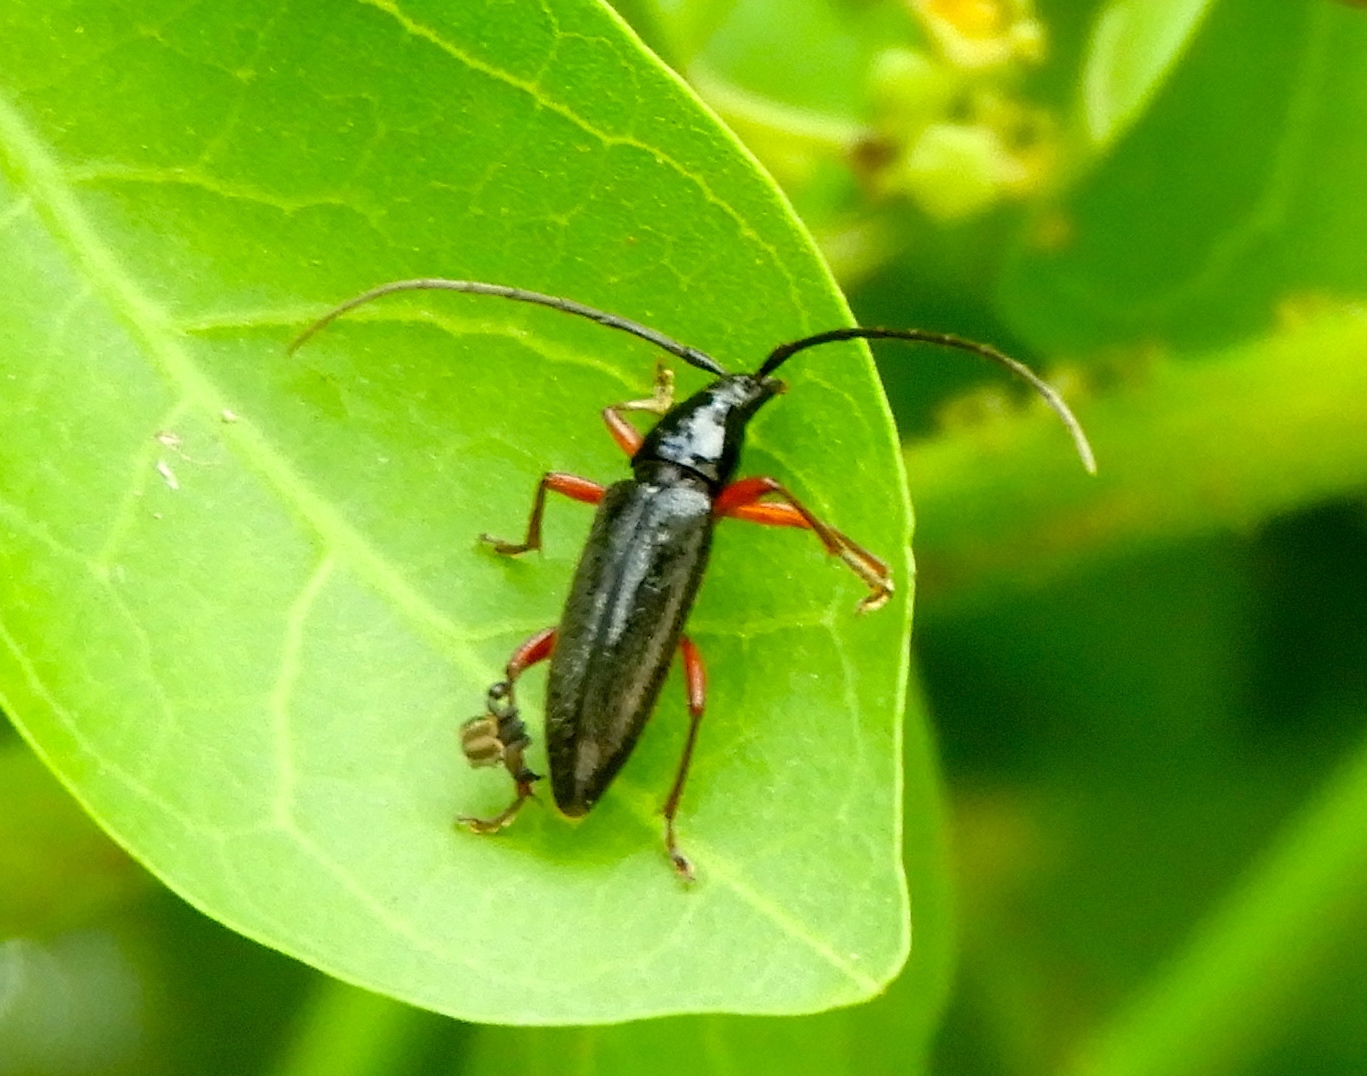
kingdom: Animalia
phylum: Arthropoda
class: Insecta
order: Coleoptera
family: Cerambycidae
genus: Stenosphenus
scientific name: Stenosphenus
